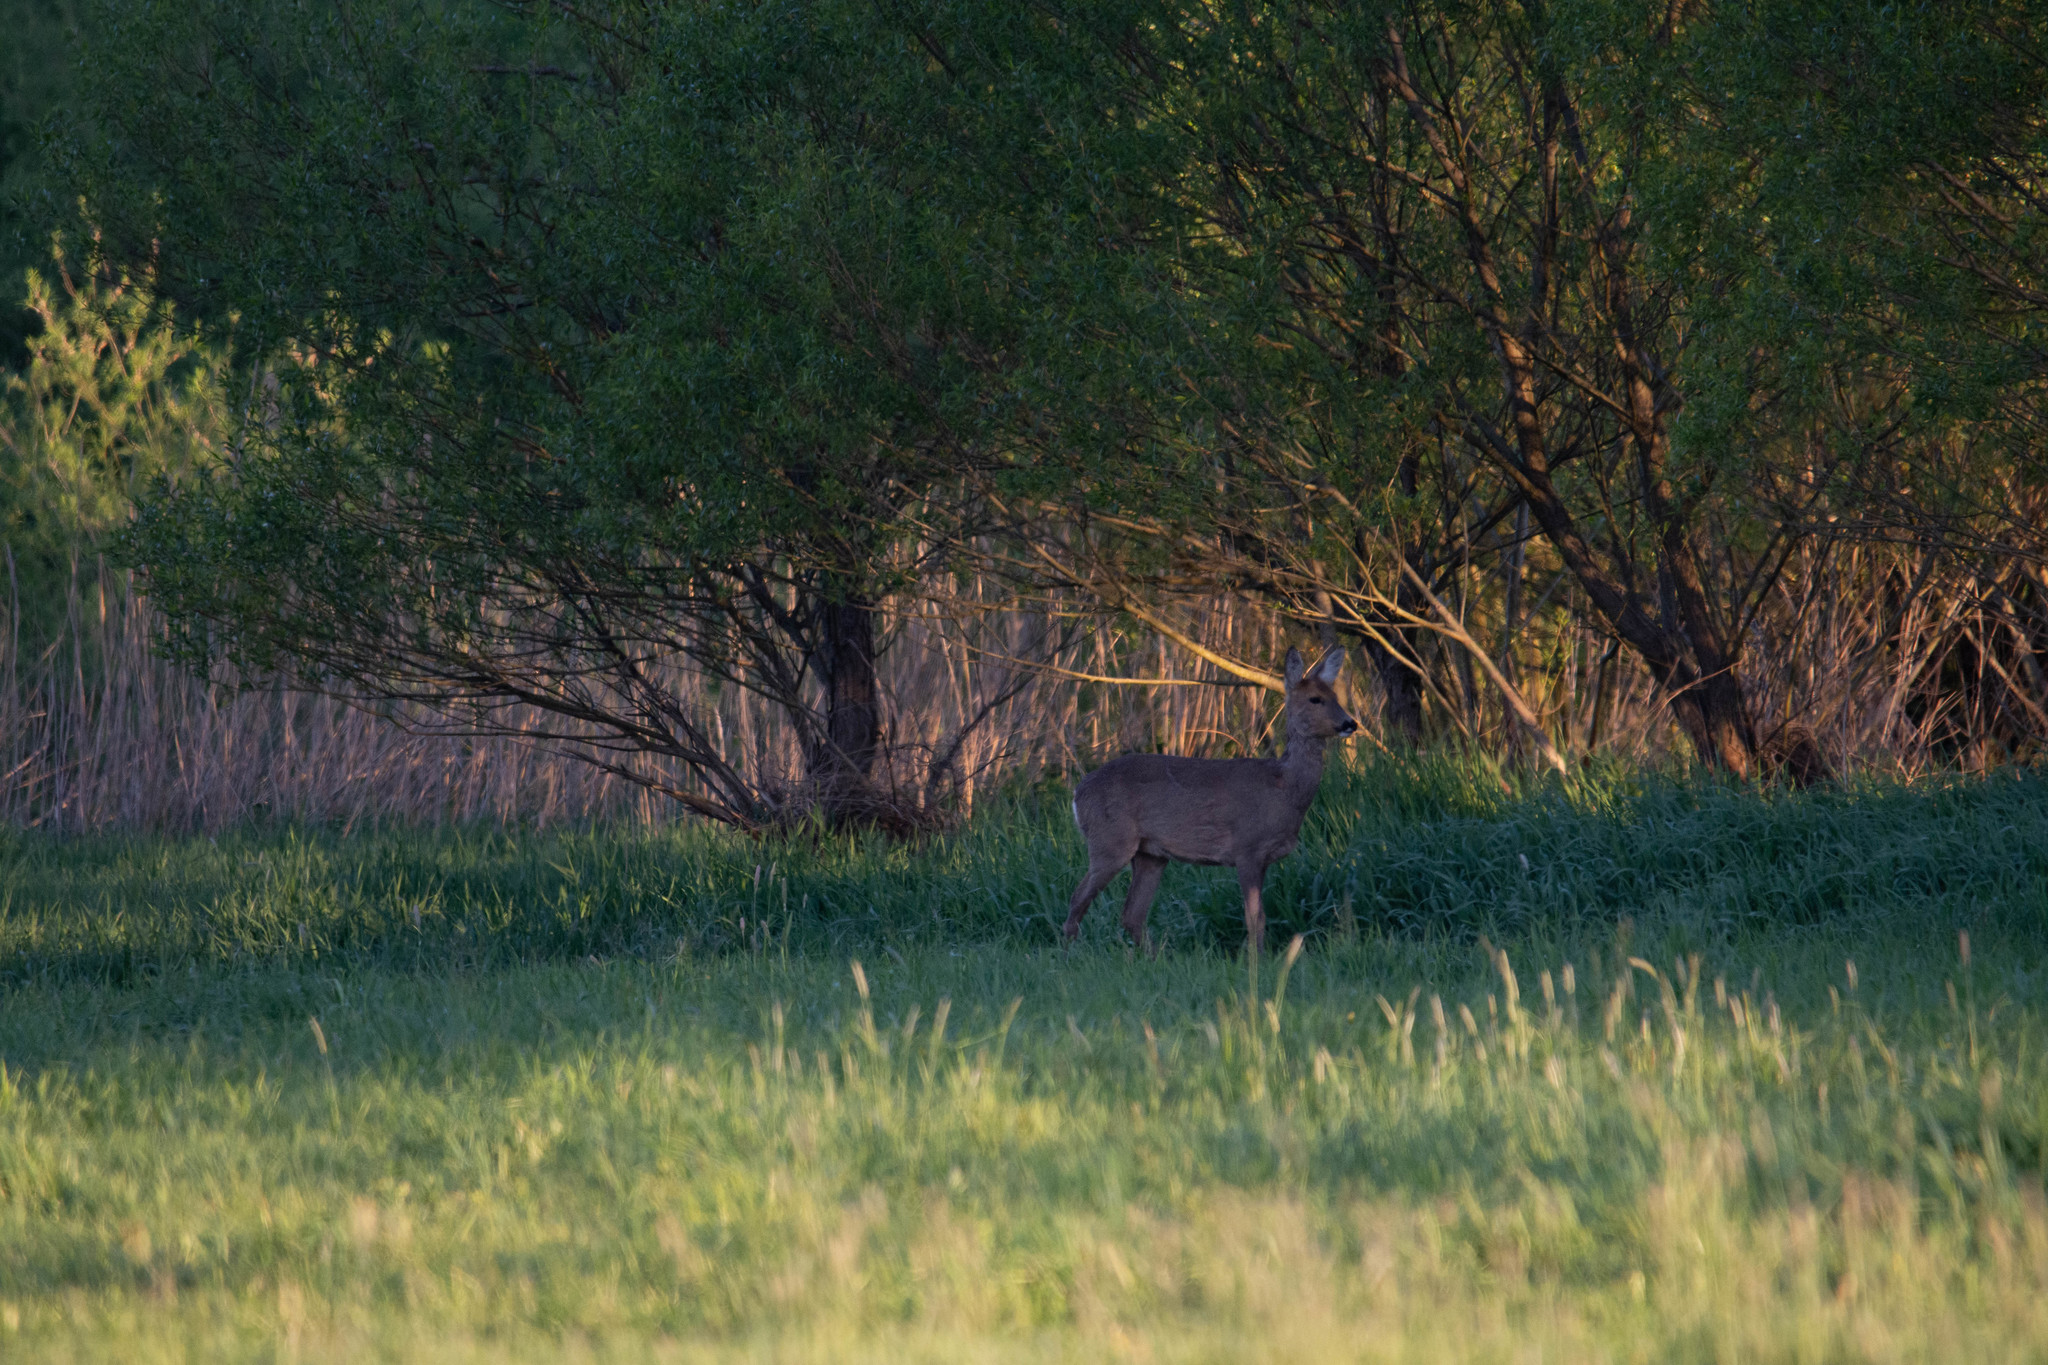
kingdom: Animalia
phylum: Chordata
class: Mammalia
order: Artiodactyla
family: Cervidae
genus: Capreolus
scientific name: Capreolus capreolus
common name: Western roe deer
